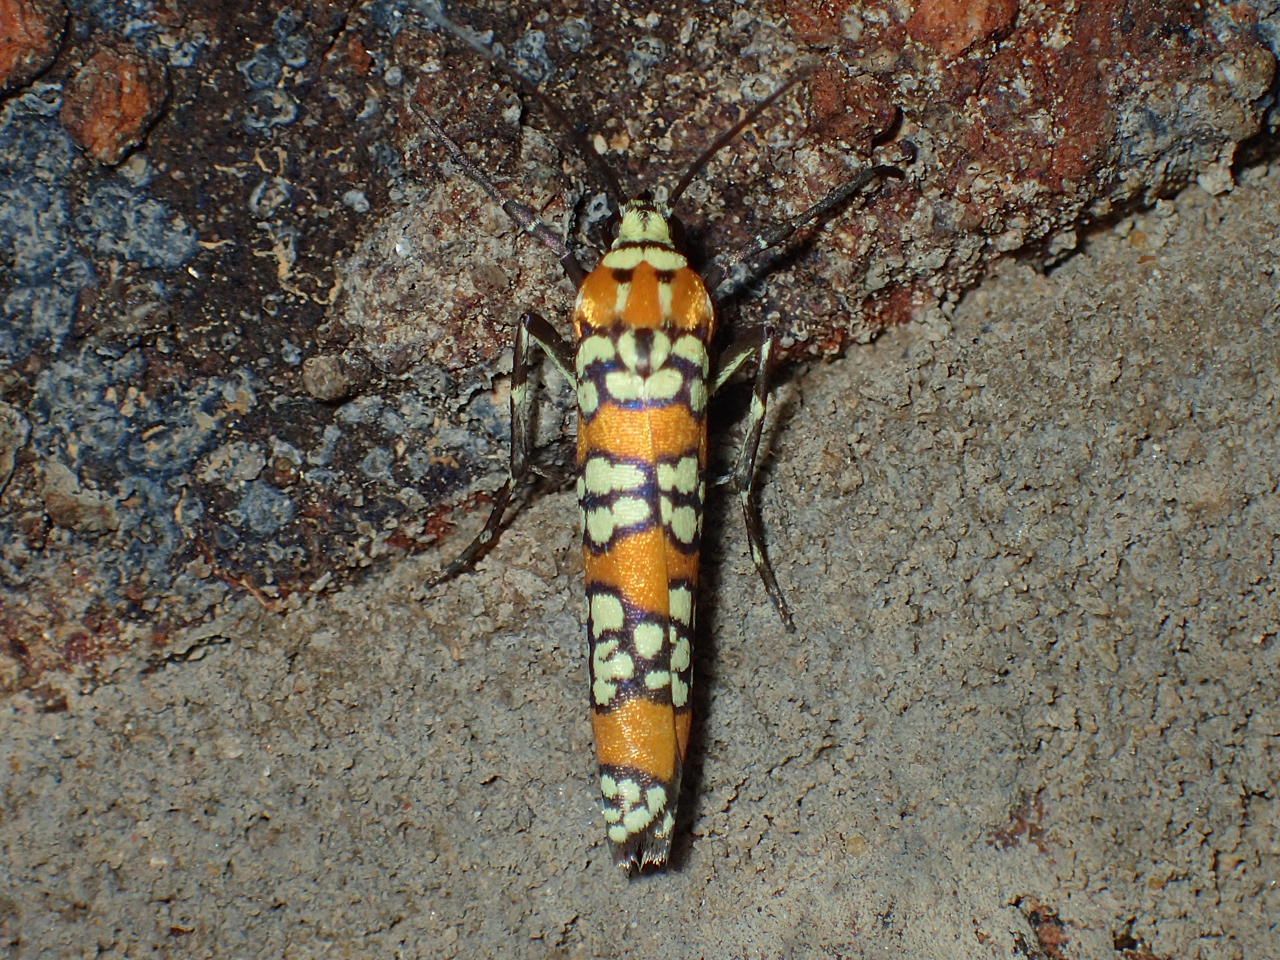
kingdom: Animalia
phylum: Arthropoda
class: Insecta
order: Lepidoptera
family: Attevidae
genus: Atteva
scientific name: Atteva punctella
